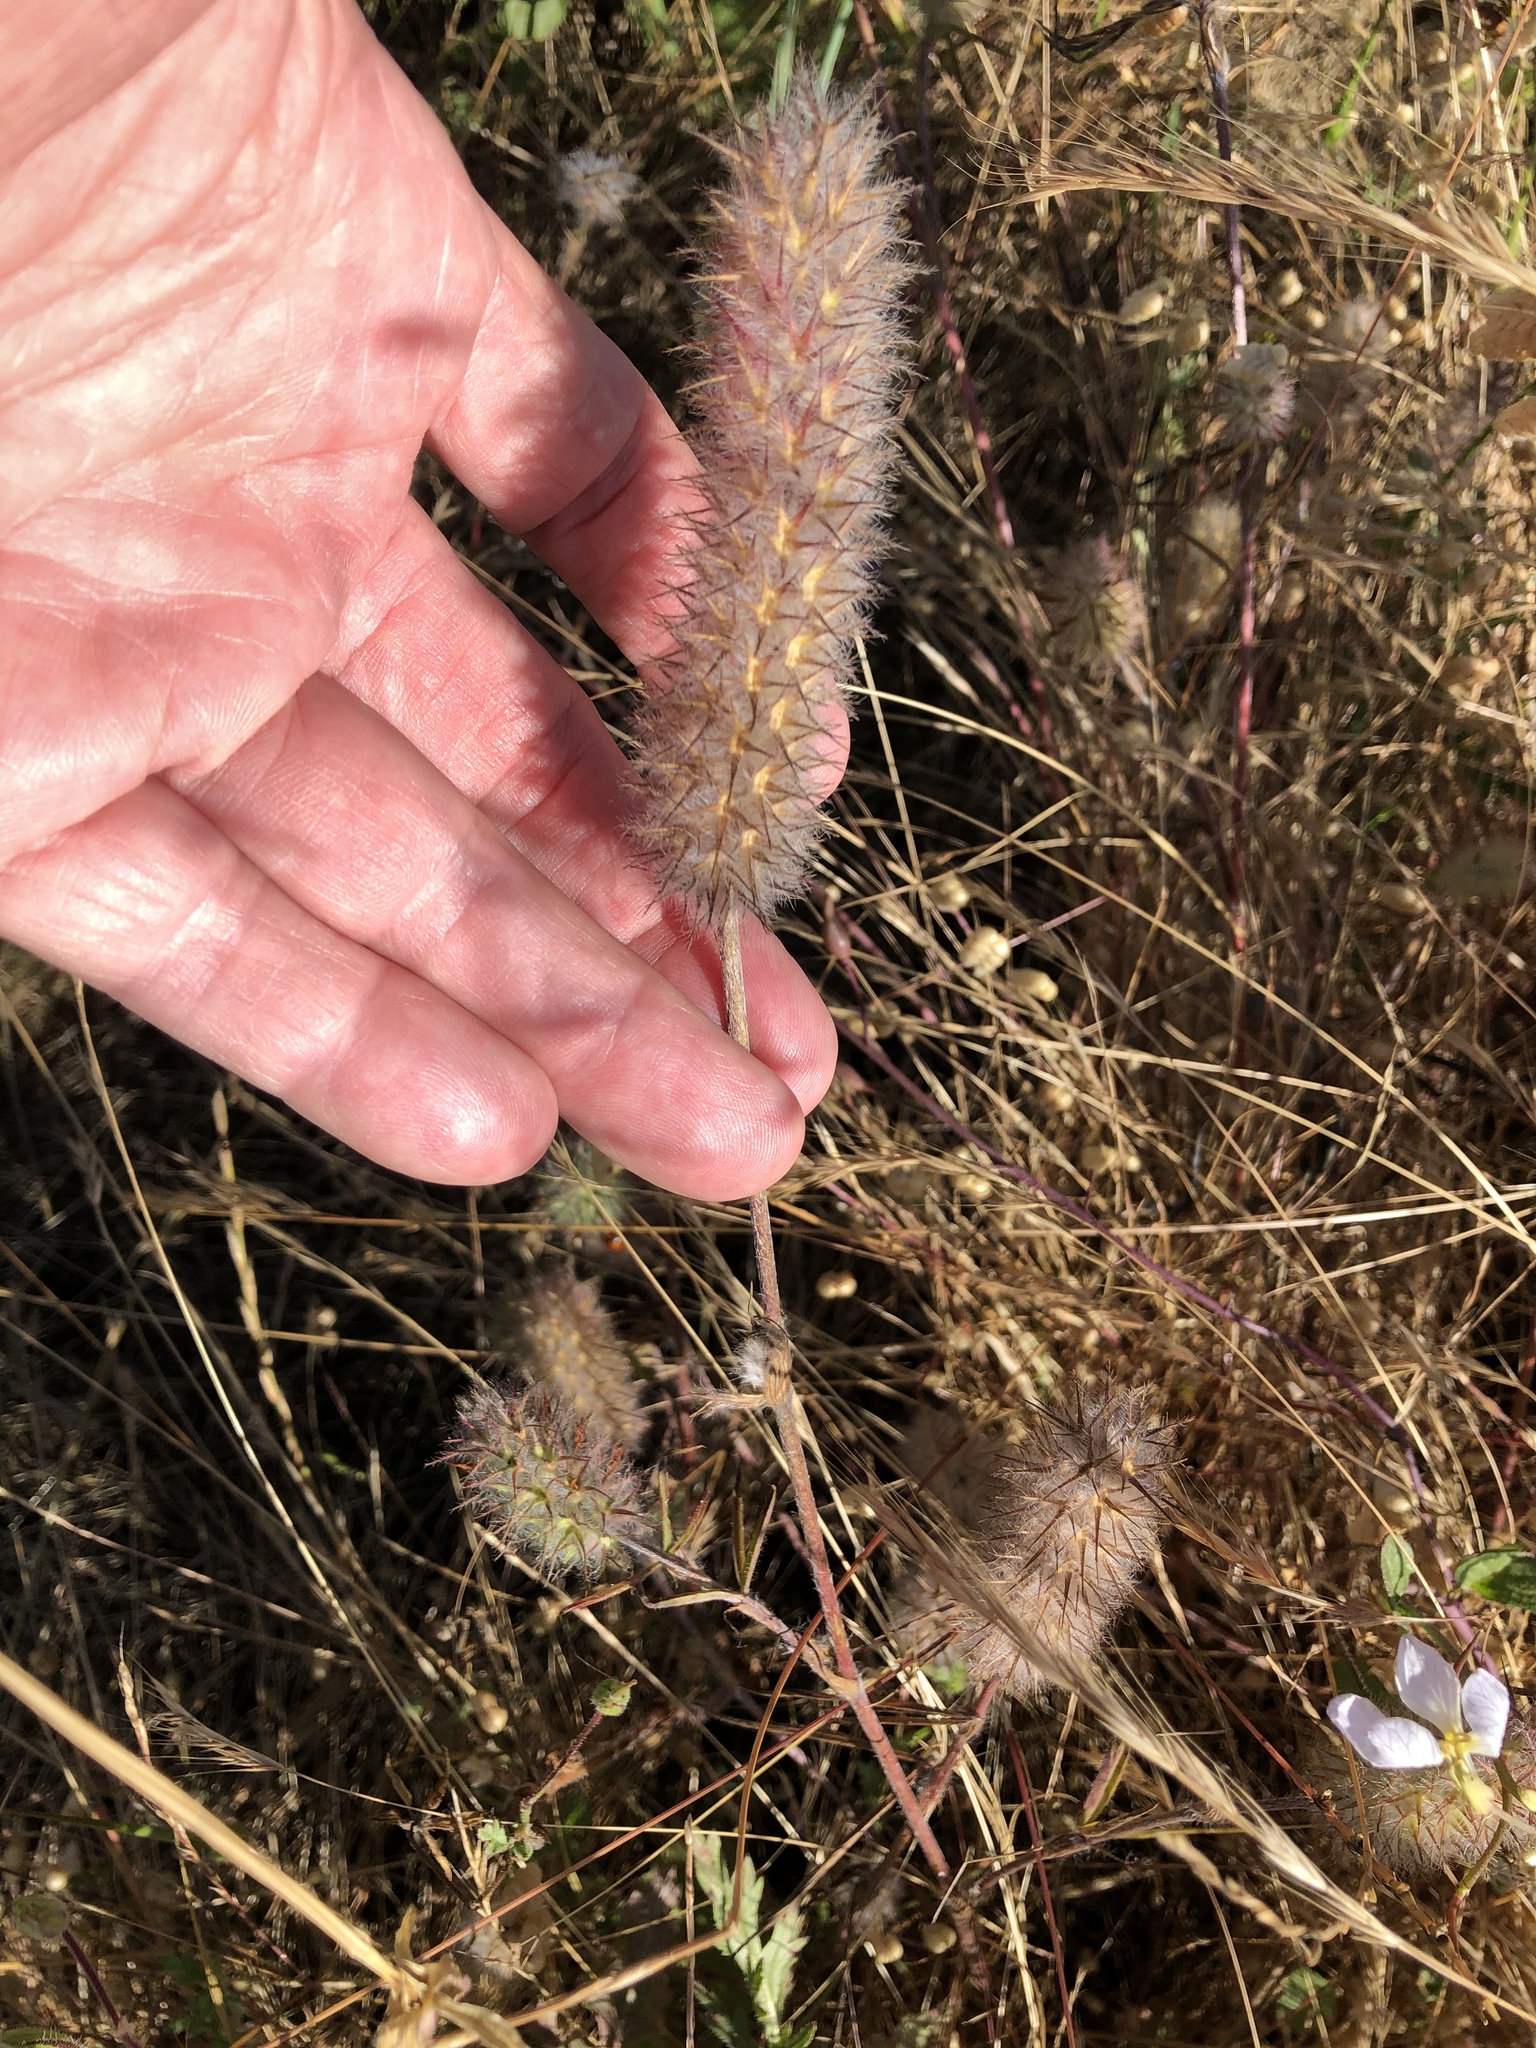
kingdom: Plantae
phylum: Tracheophyta
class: Magnoliopsida
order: Fabales
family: Fabaceae
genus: Trifolium
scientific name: Trifolium angustifolium
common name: Narrow clover
